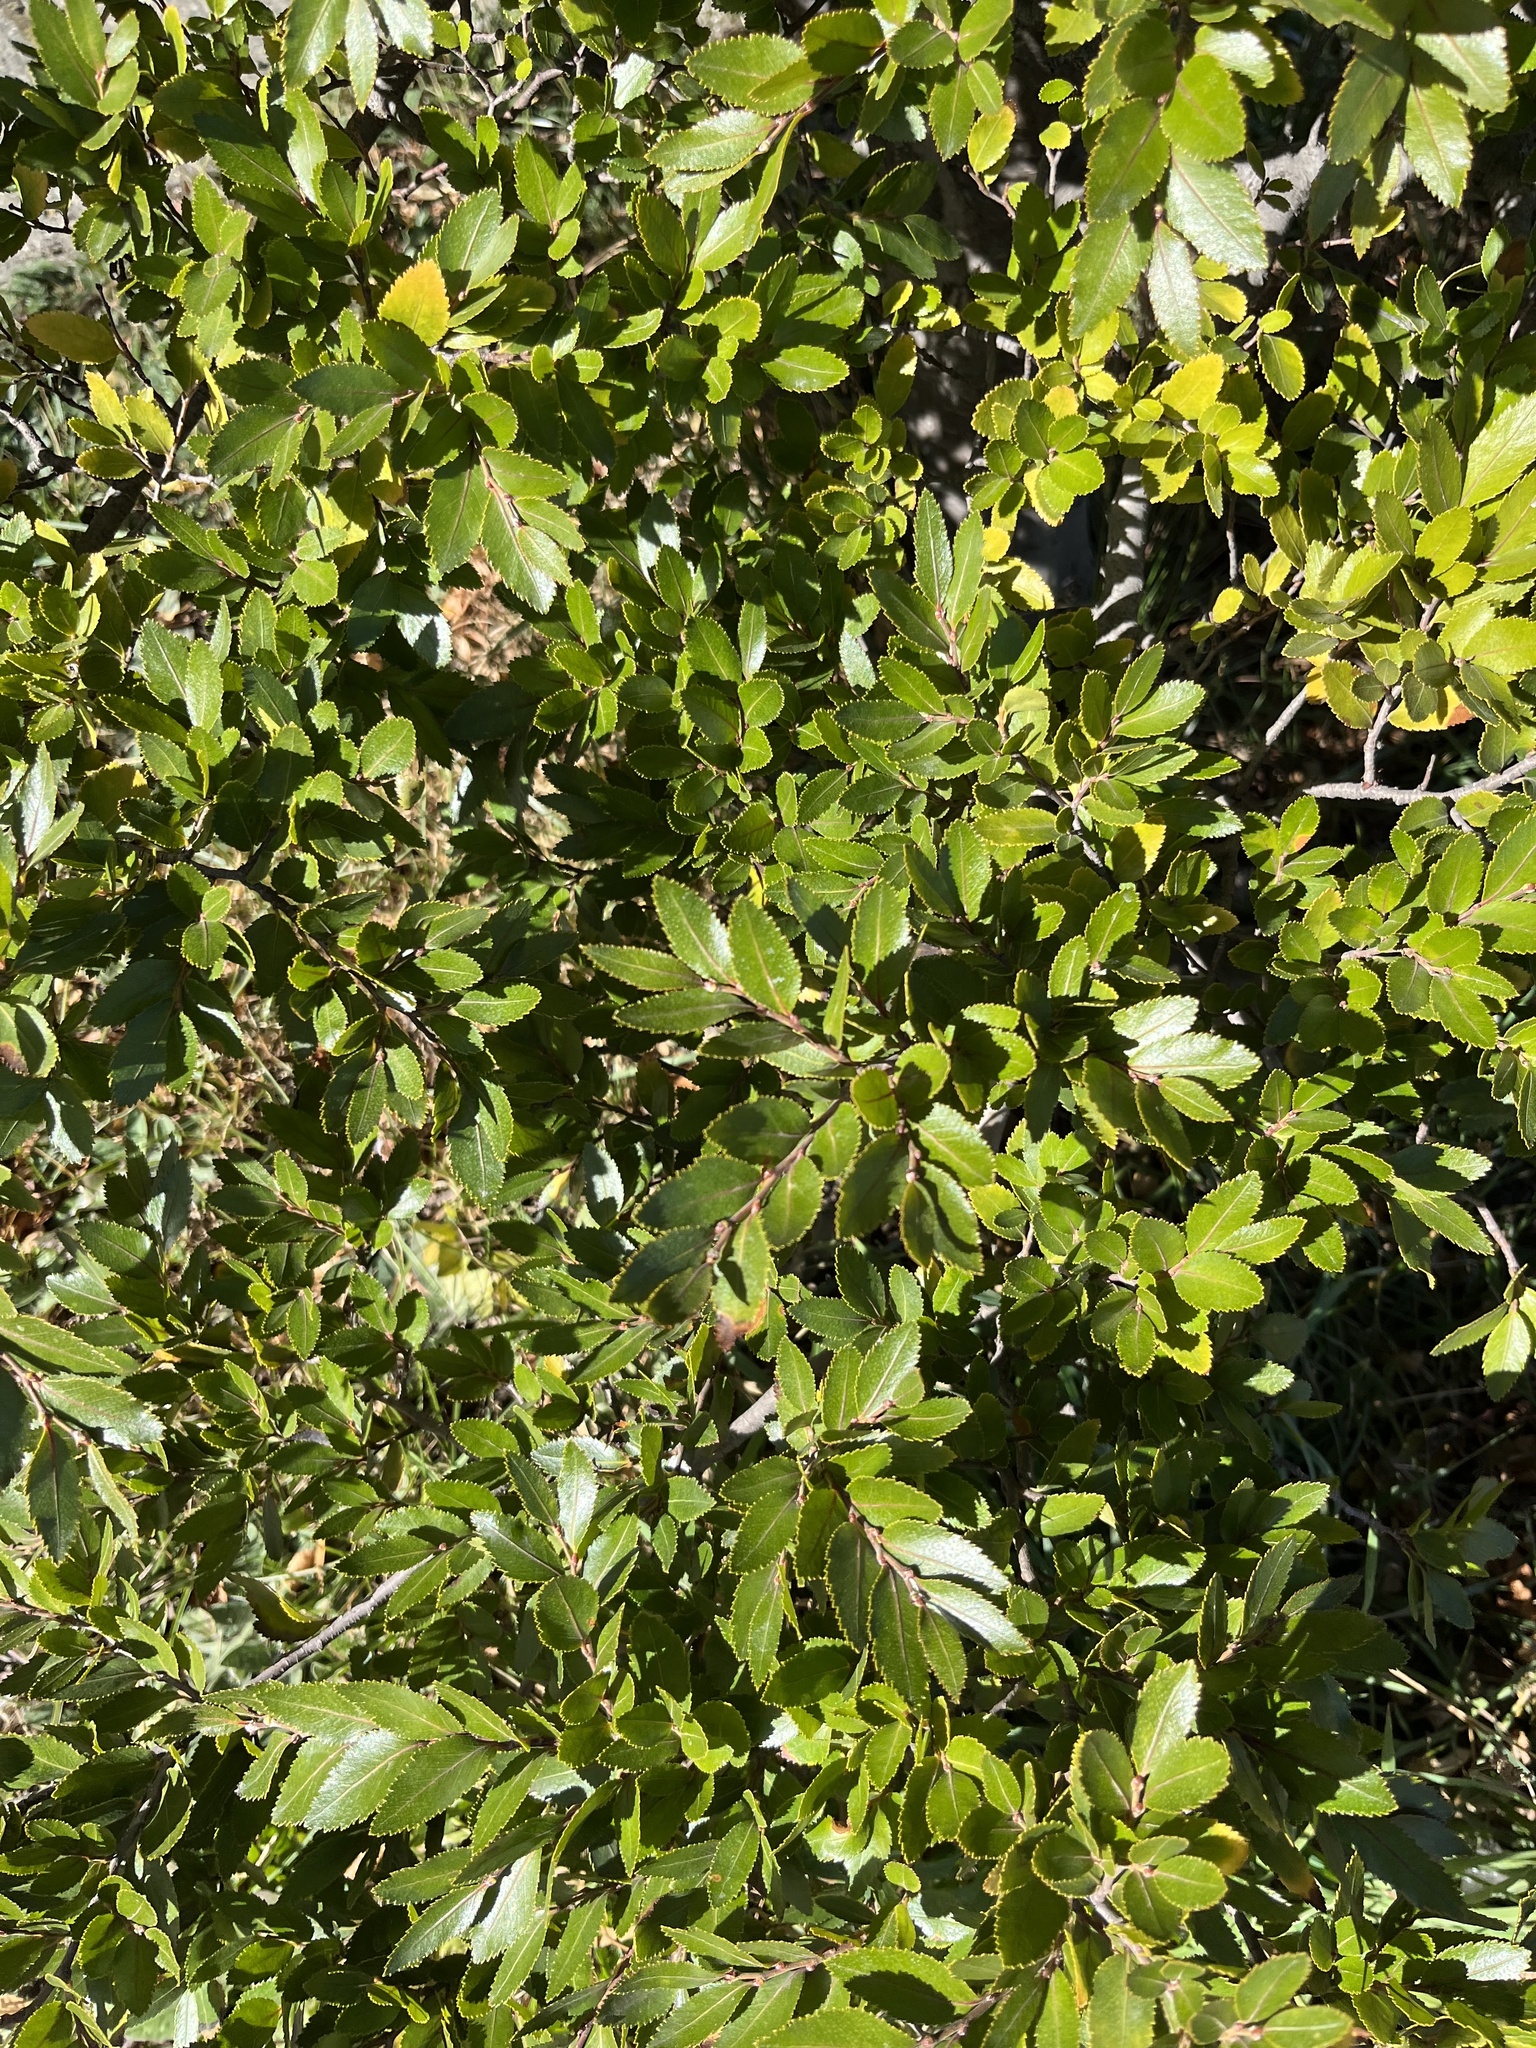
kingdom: Plantae
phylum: Tracheophyta
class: Magnoliopsida
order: Fagales
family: Nothofagaceae
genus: Nothofagus
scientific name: Nothofagus betuloides
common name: Magellan's beech
